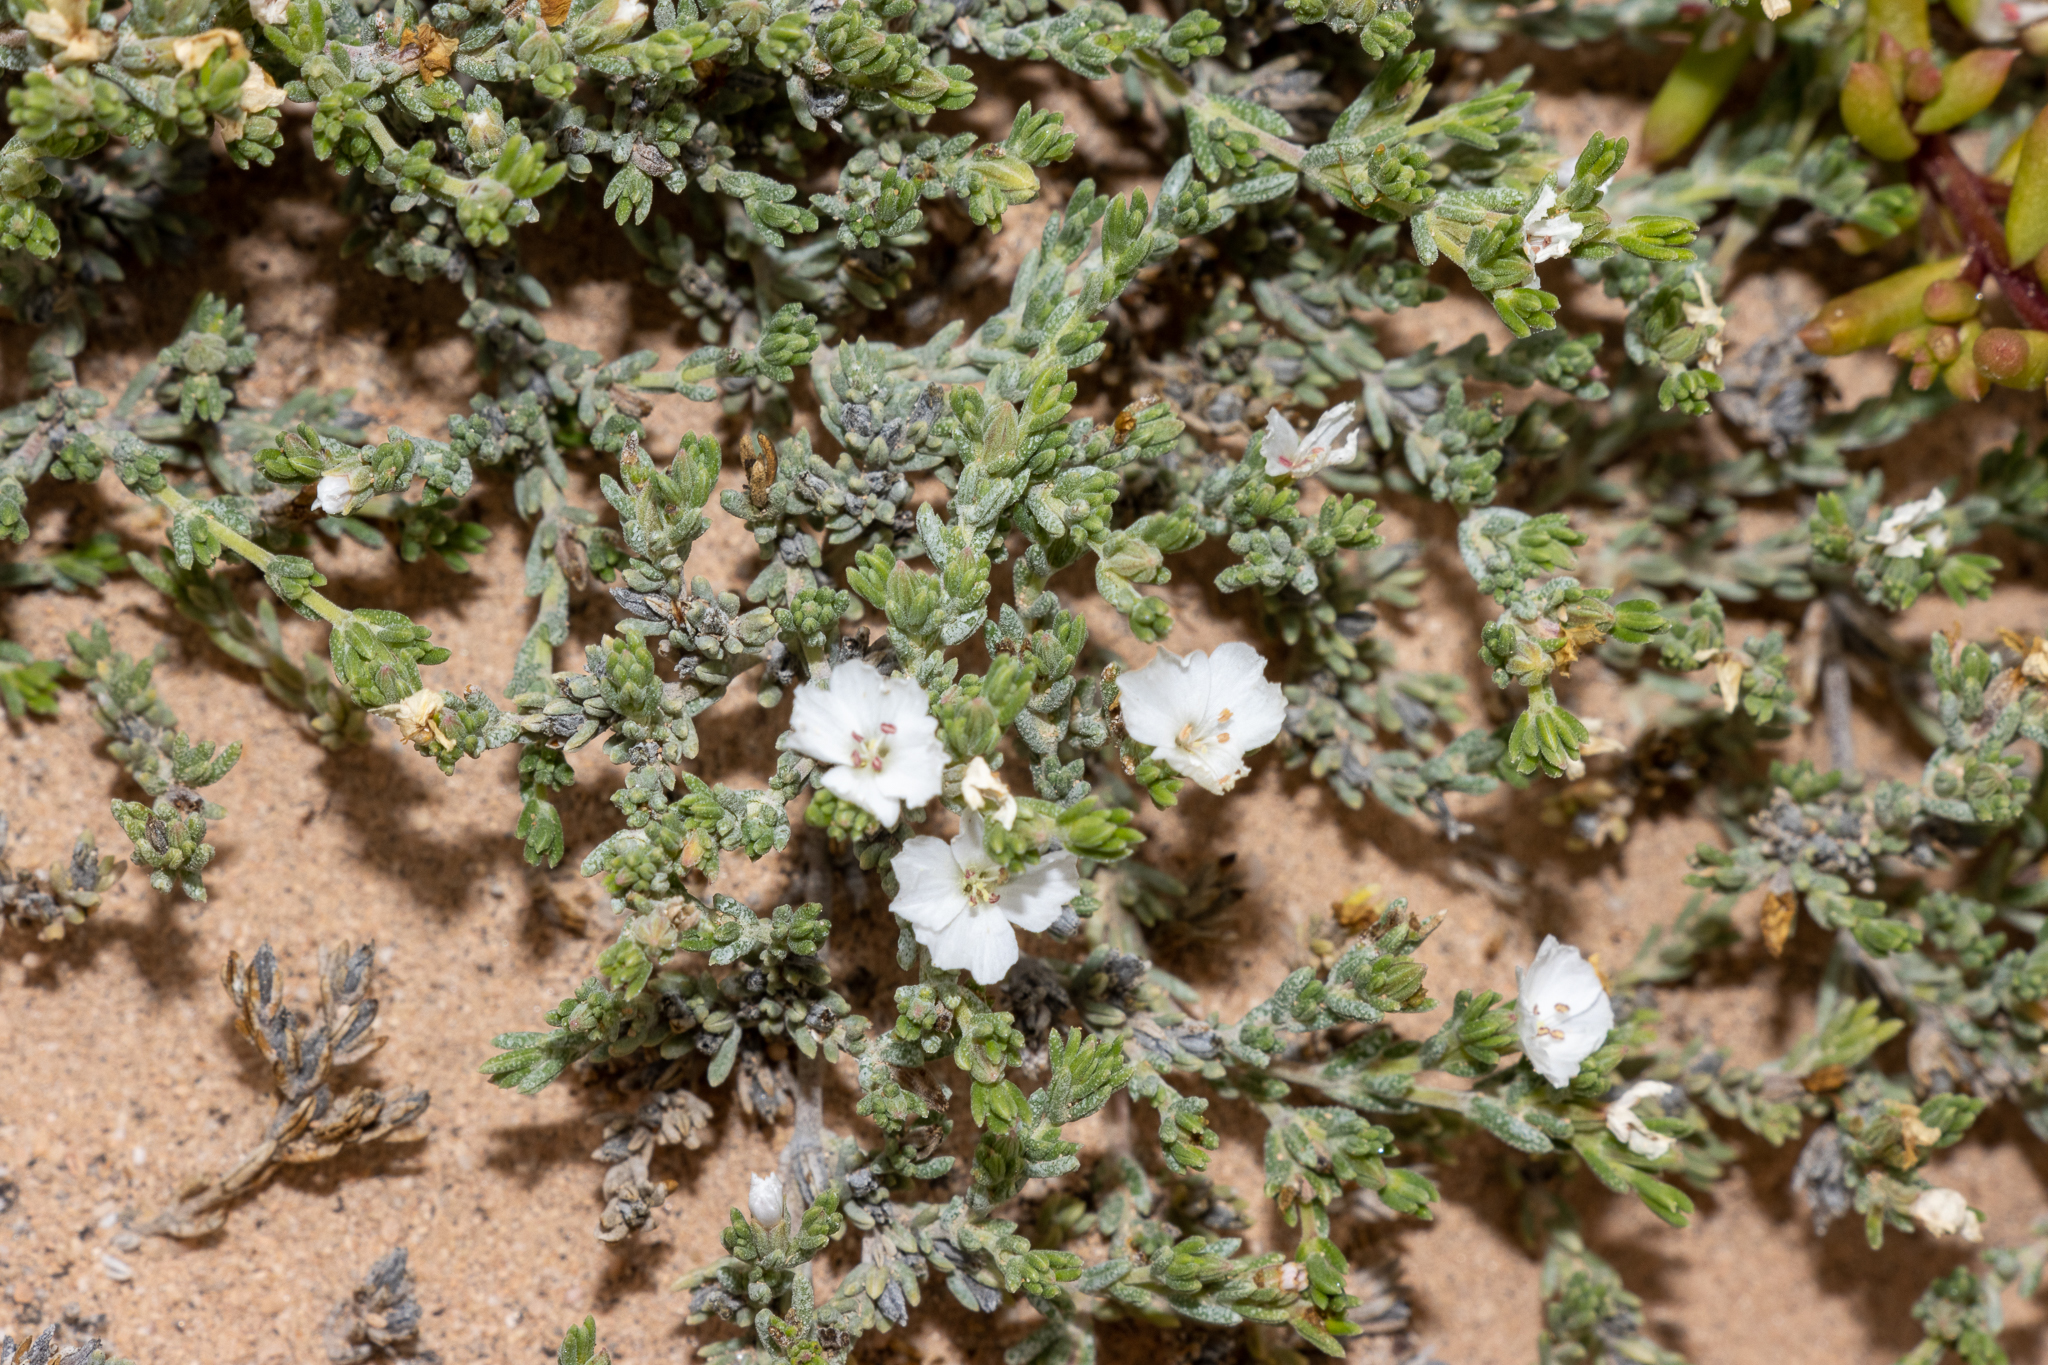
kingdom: Plantae
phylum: Tracheophyta
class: Magnoliopsida
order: Caryophyllales
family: Frankeniaceae
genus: Frankenia
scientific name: Frankenia sessilis
